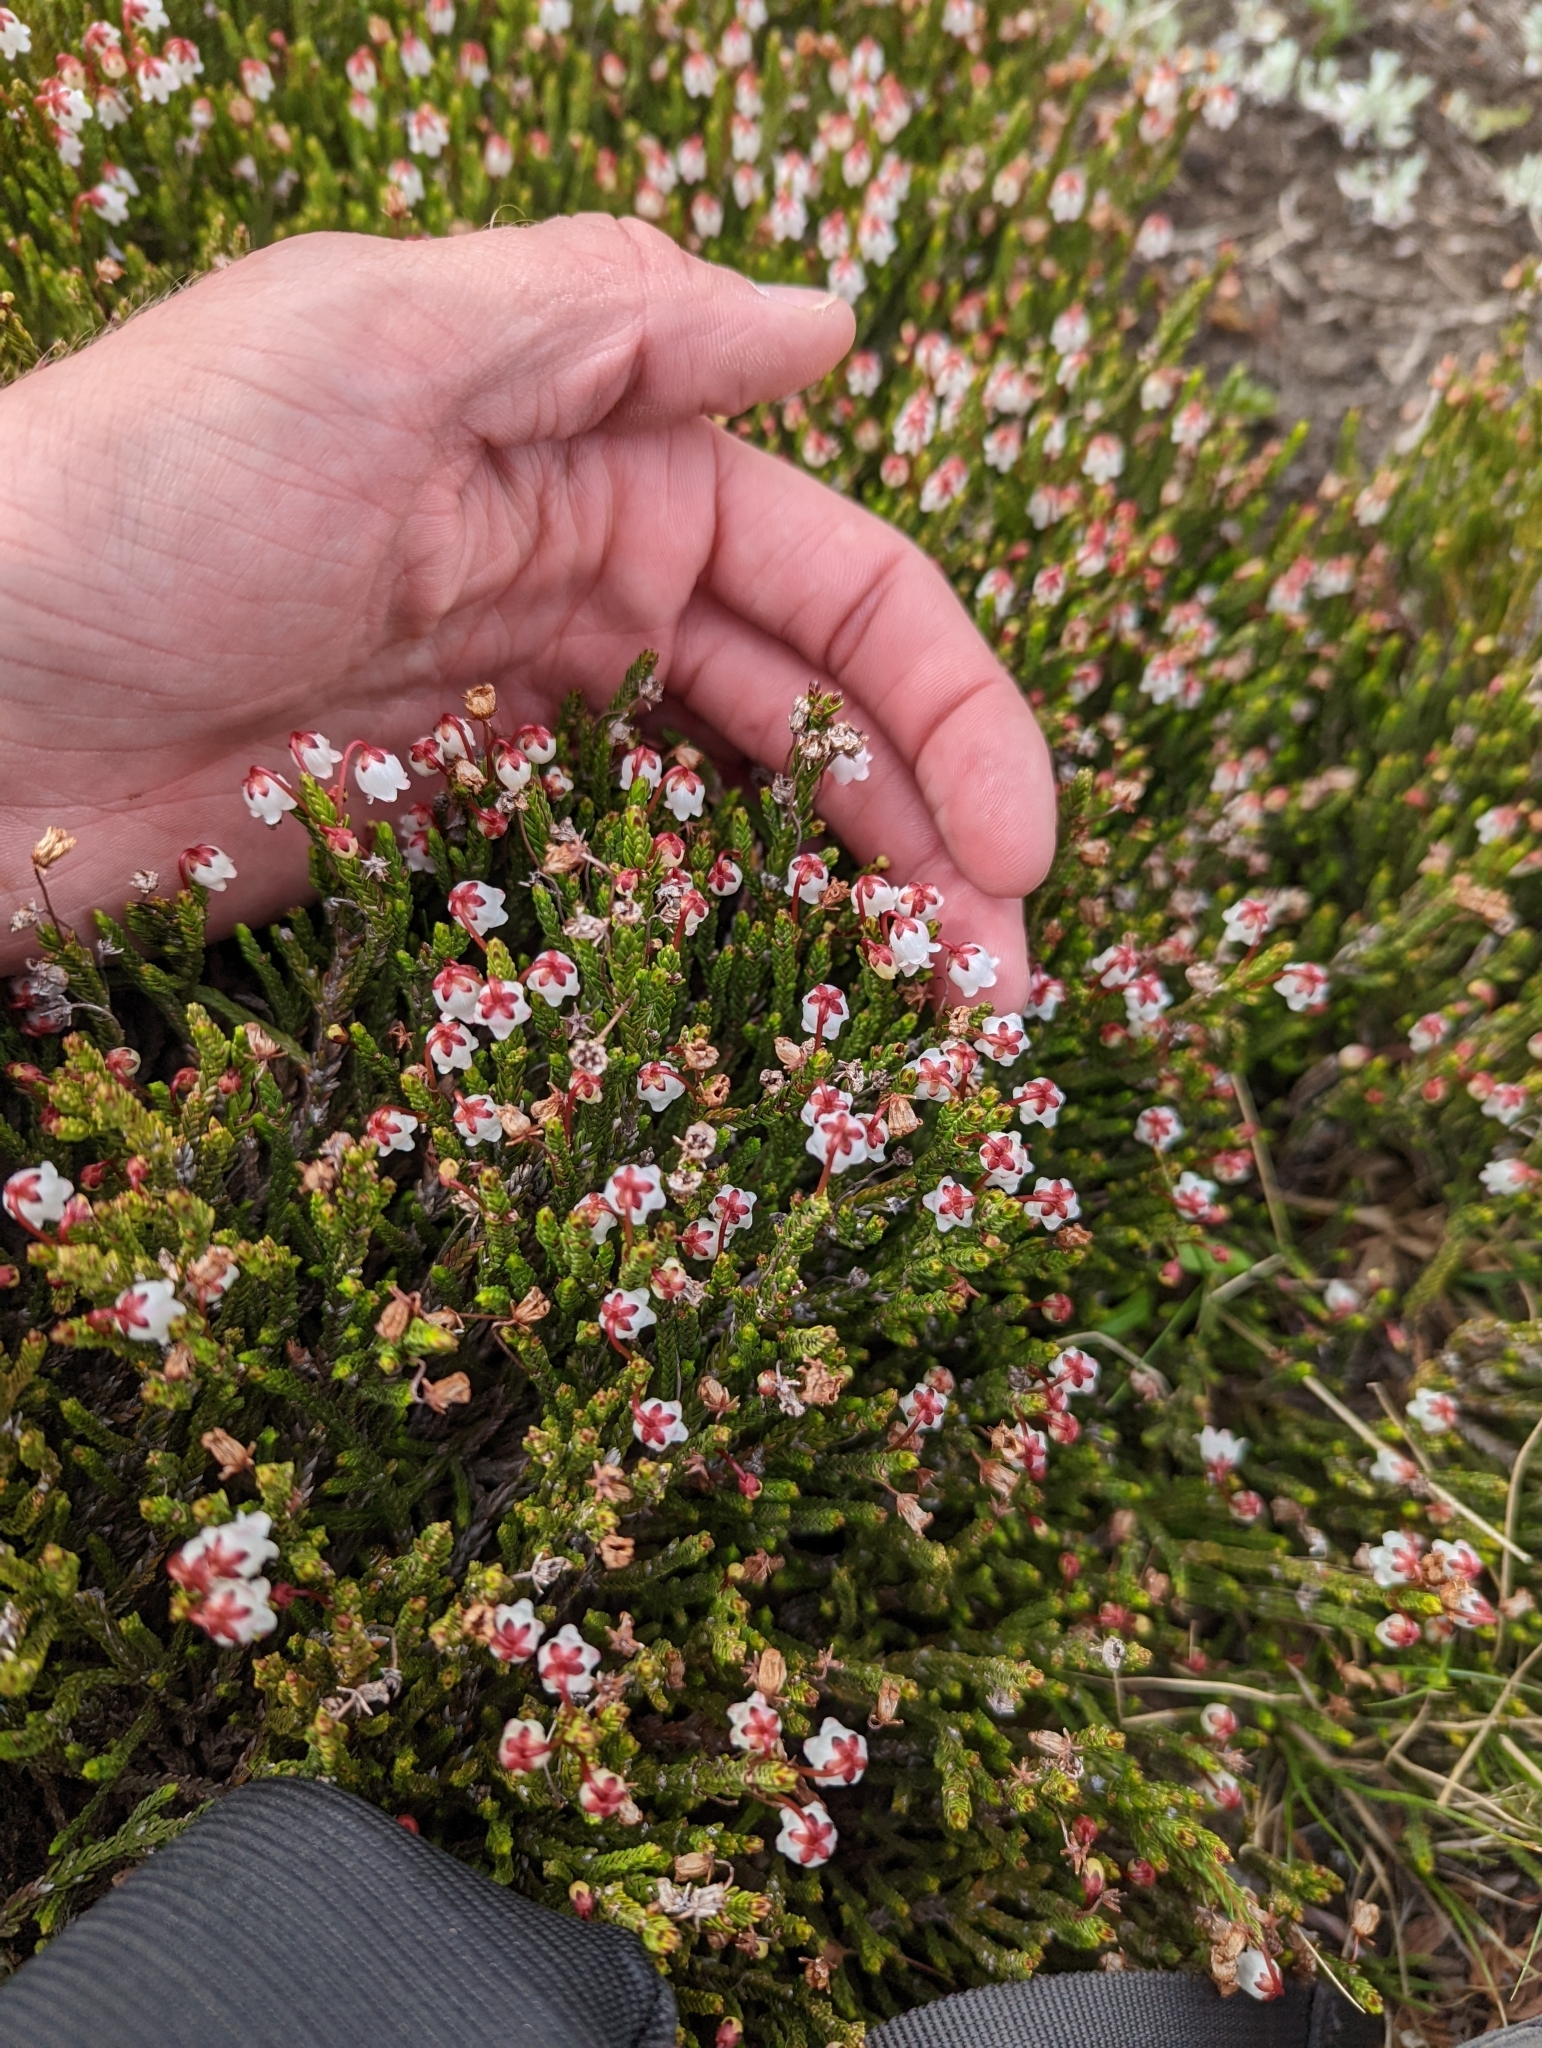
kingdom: Plantae
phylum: Tracheophyta
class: Magnoliopsida
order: Ericales
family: Ericaceae
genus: Cassiope
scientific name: Cassiope mertensiana
